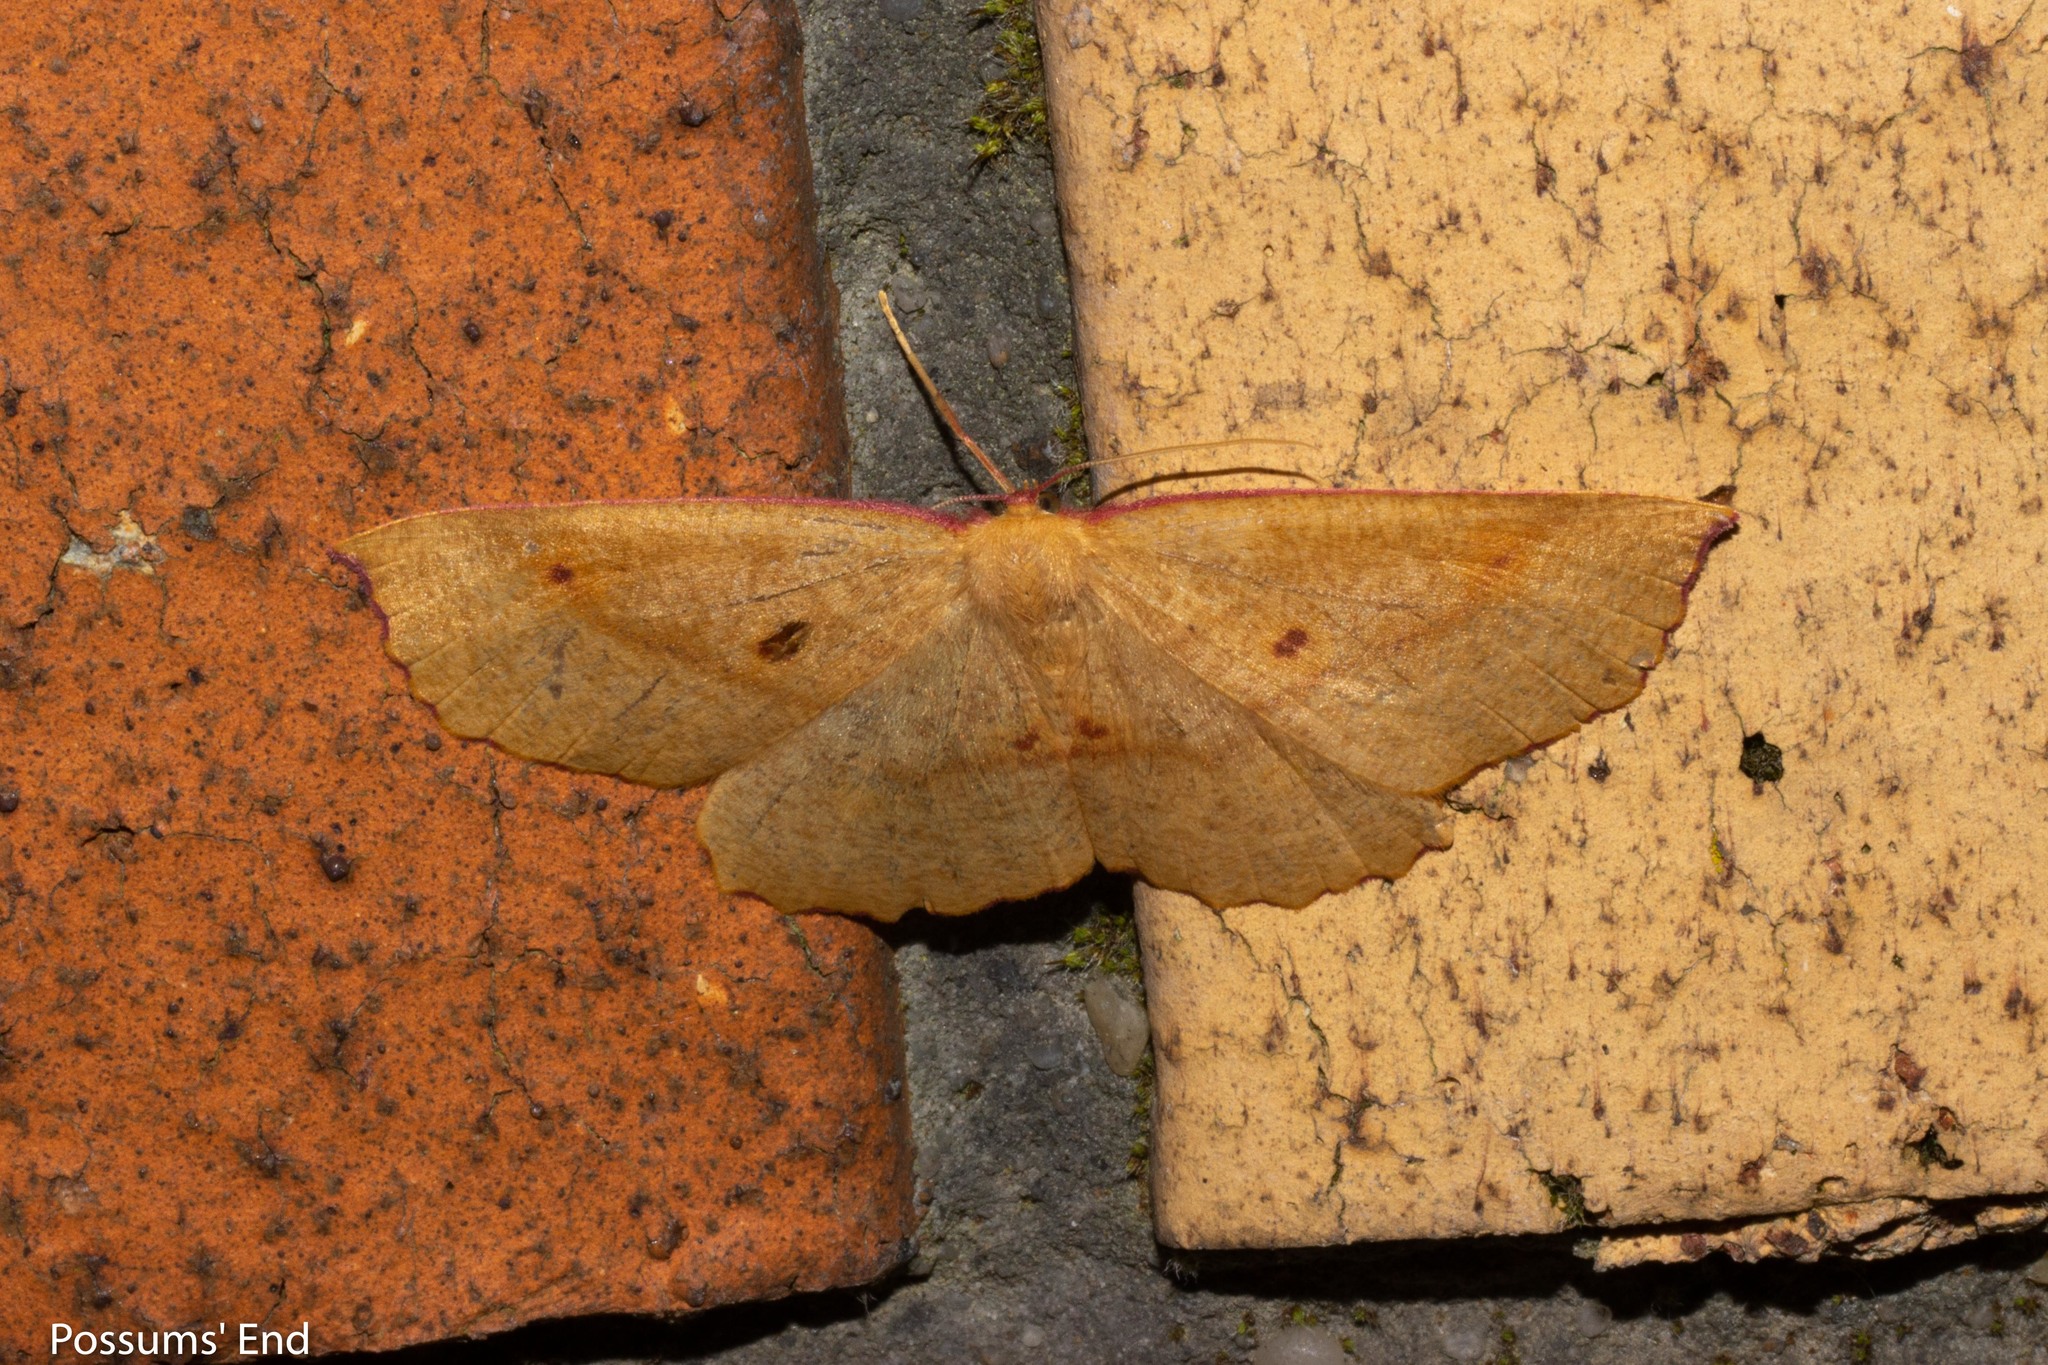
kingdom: Animalia
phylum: Arthropoda
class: Insecta
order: Lepidoptera
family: Geometridae
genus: Xyridacma
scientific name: Xyridacma alectoraria
